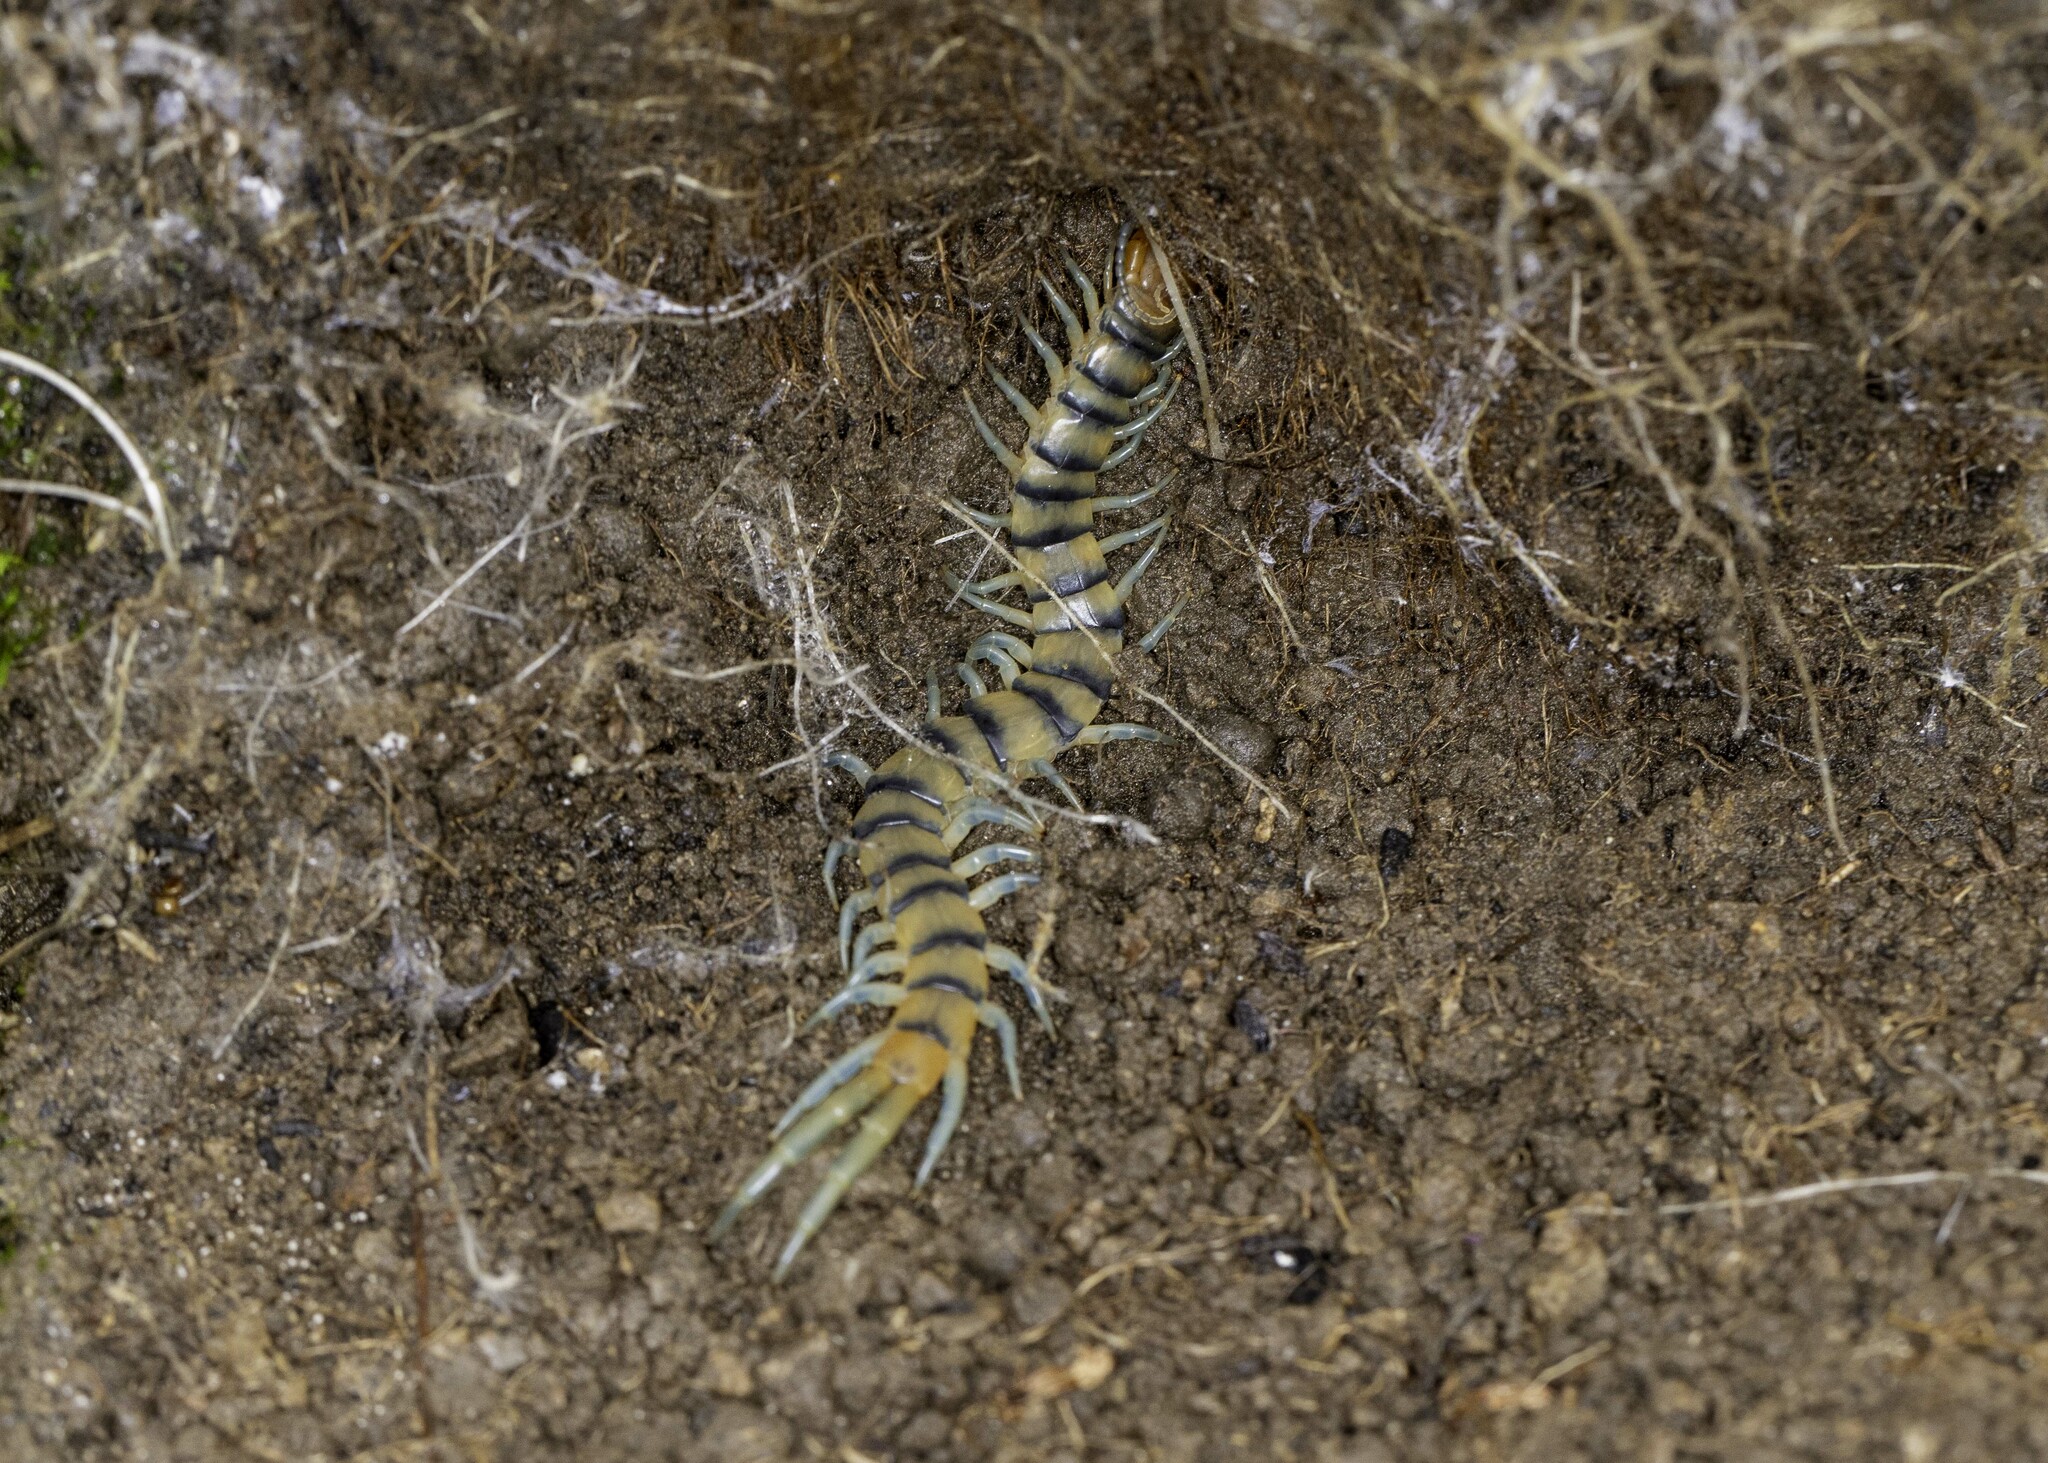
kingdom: Animalia
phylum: Arthropoda
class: Chilopoda
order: Scolopendromorpha
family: Scolopendridae
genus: Scolopendra
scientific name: Scolopendra polymorpha
